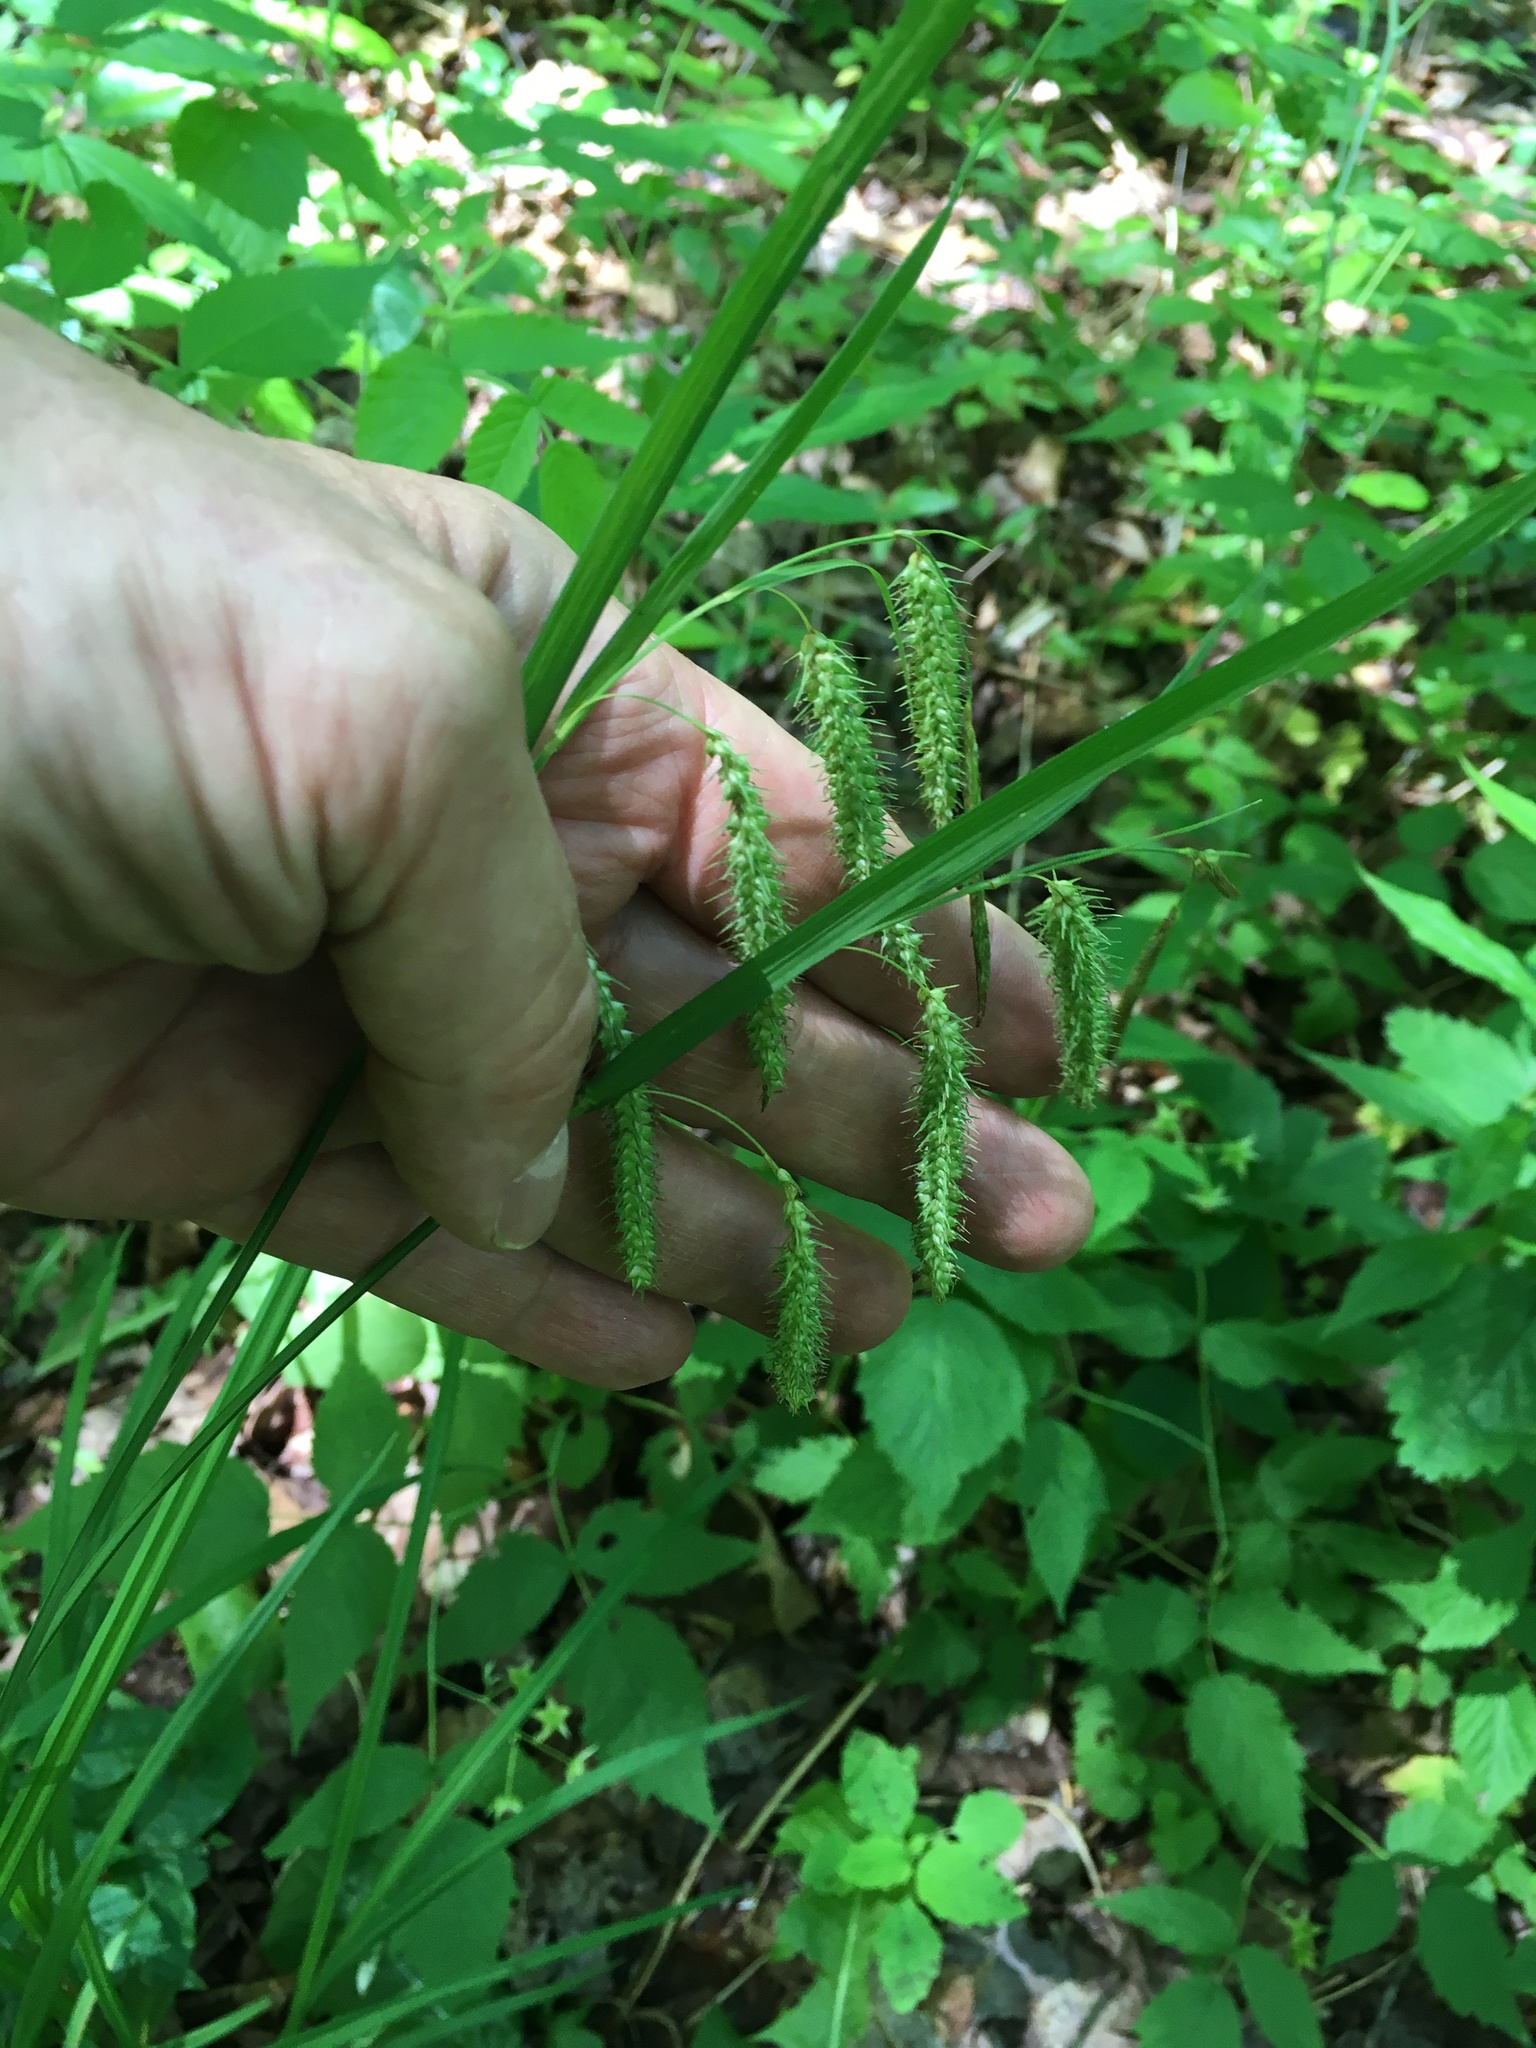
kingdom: Plantae
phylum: Tracheophyta
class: Magnoliopsida
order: Vitales
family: Vitaceae
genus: Parthenocissus
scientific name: Parthenocissus tricuspidata
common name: Boston ivy
